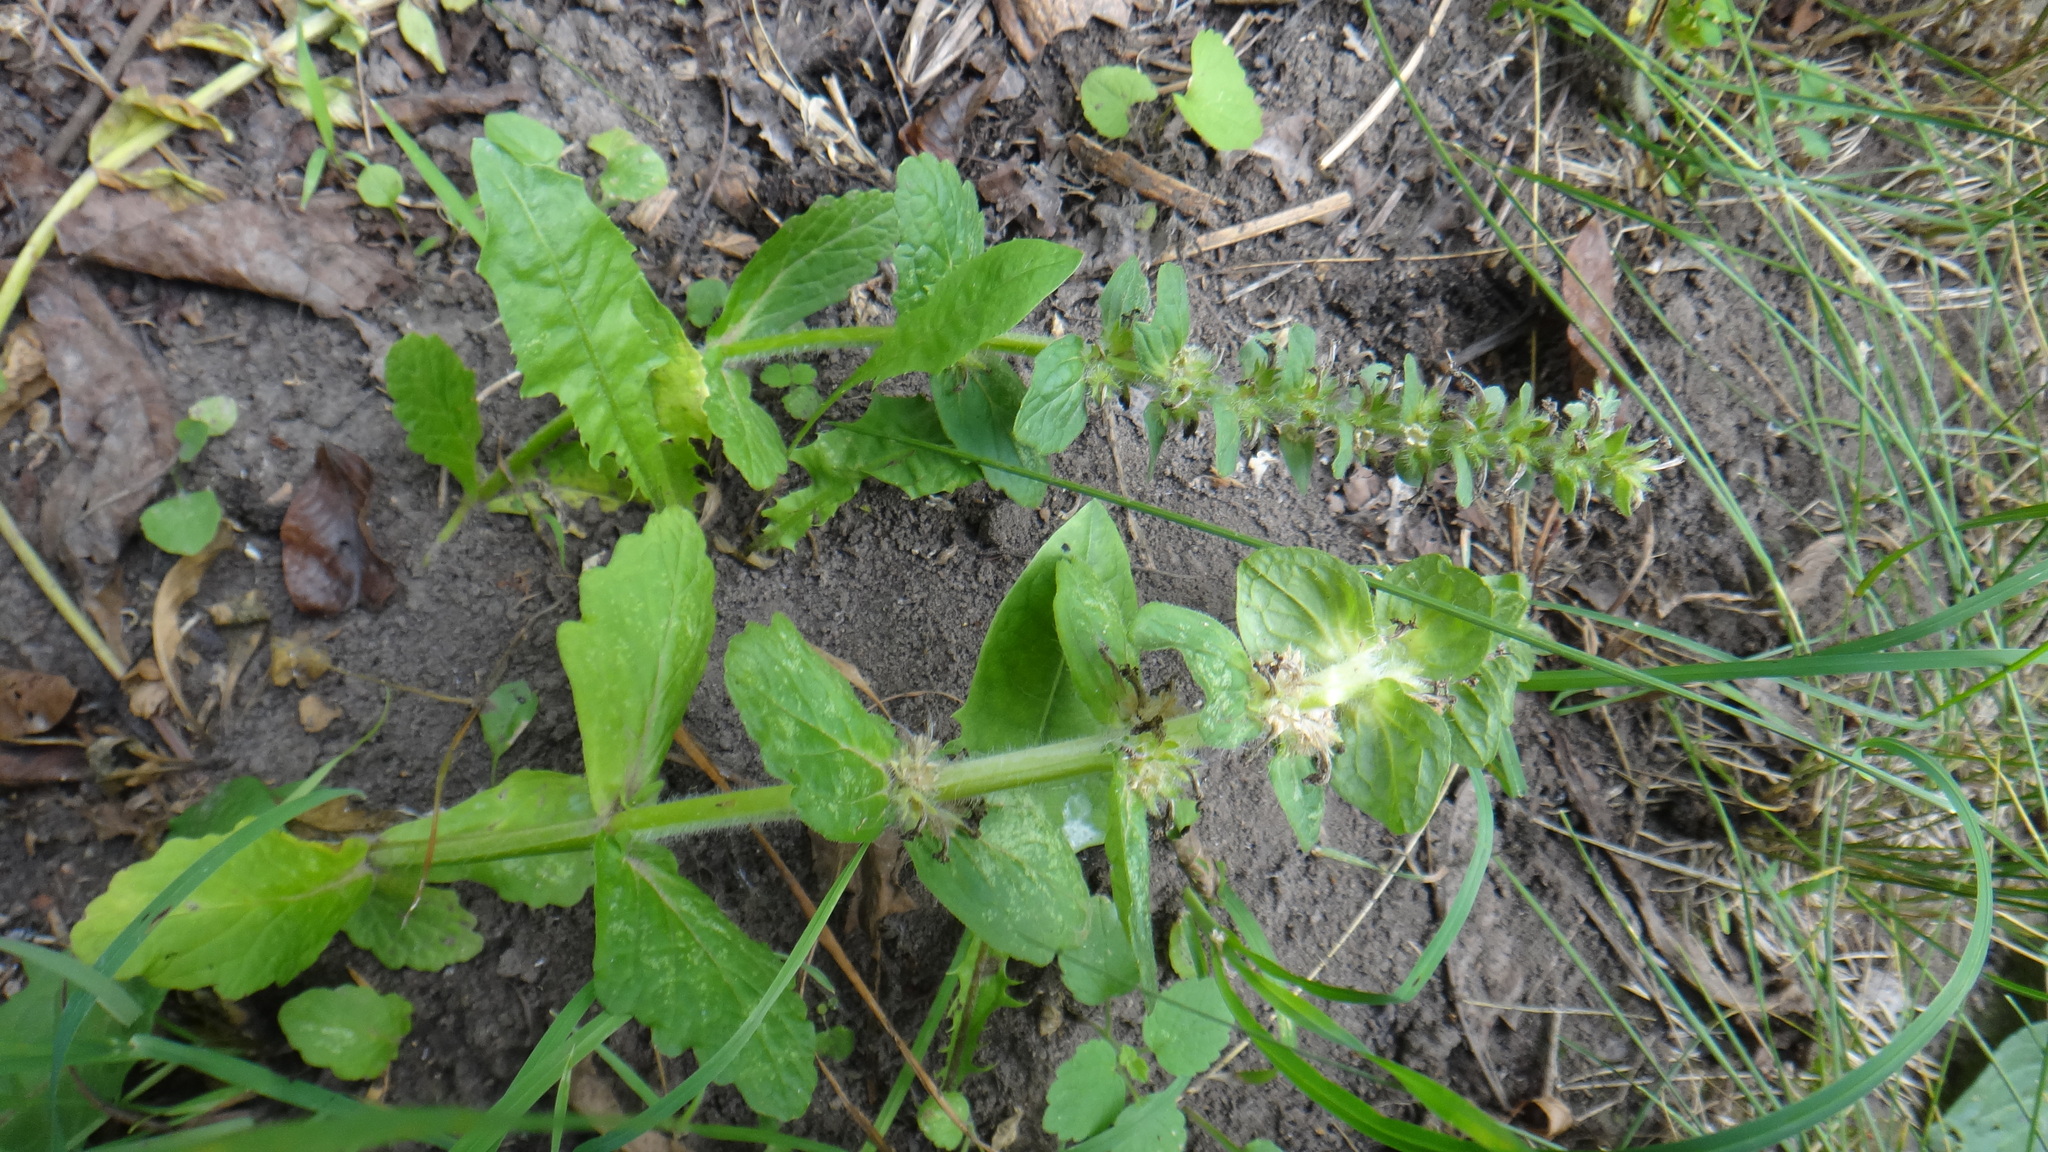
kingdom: Plantae
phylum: Tracheophyta
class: Magnoliopsida
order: Lamiales
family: Lamiaceae
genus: Ajuga
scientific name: Ajuga genevensis
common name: Blue bugle
